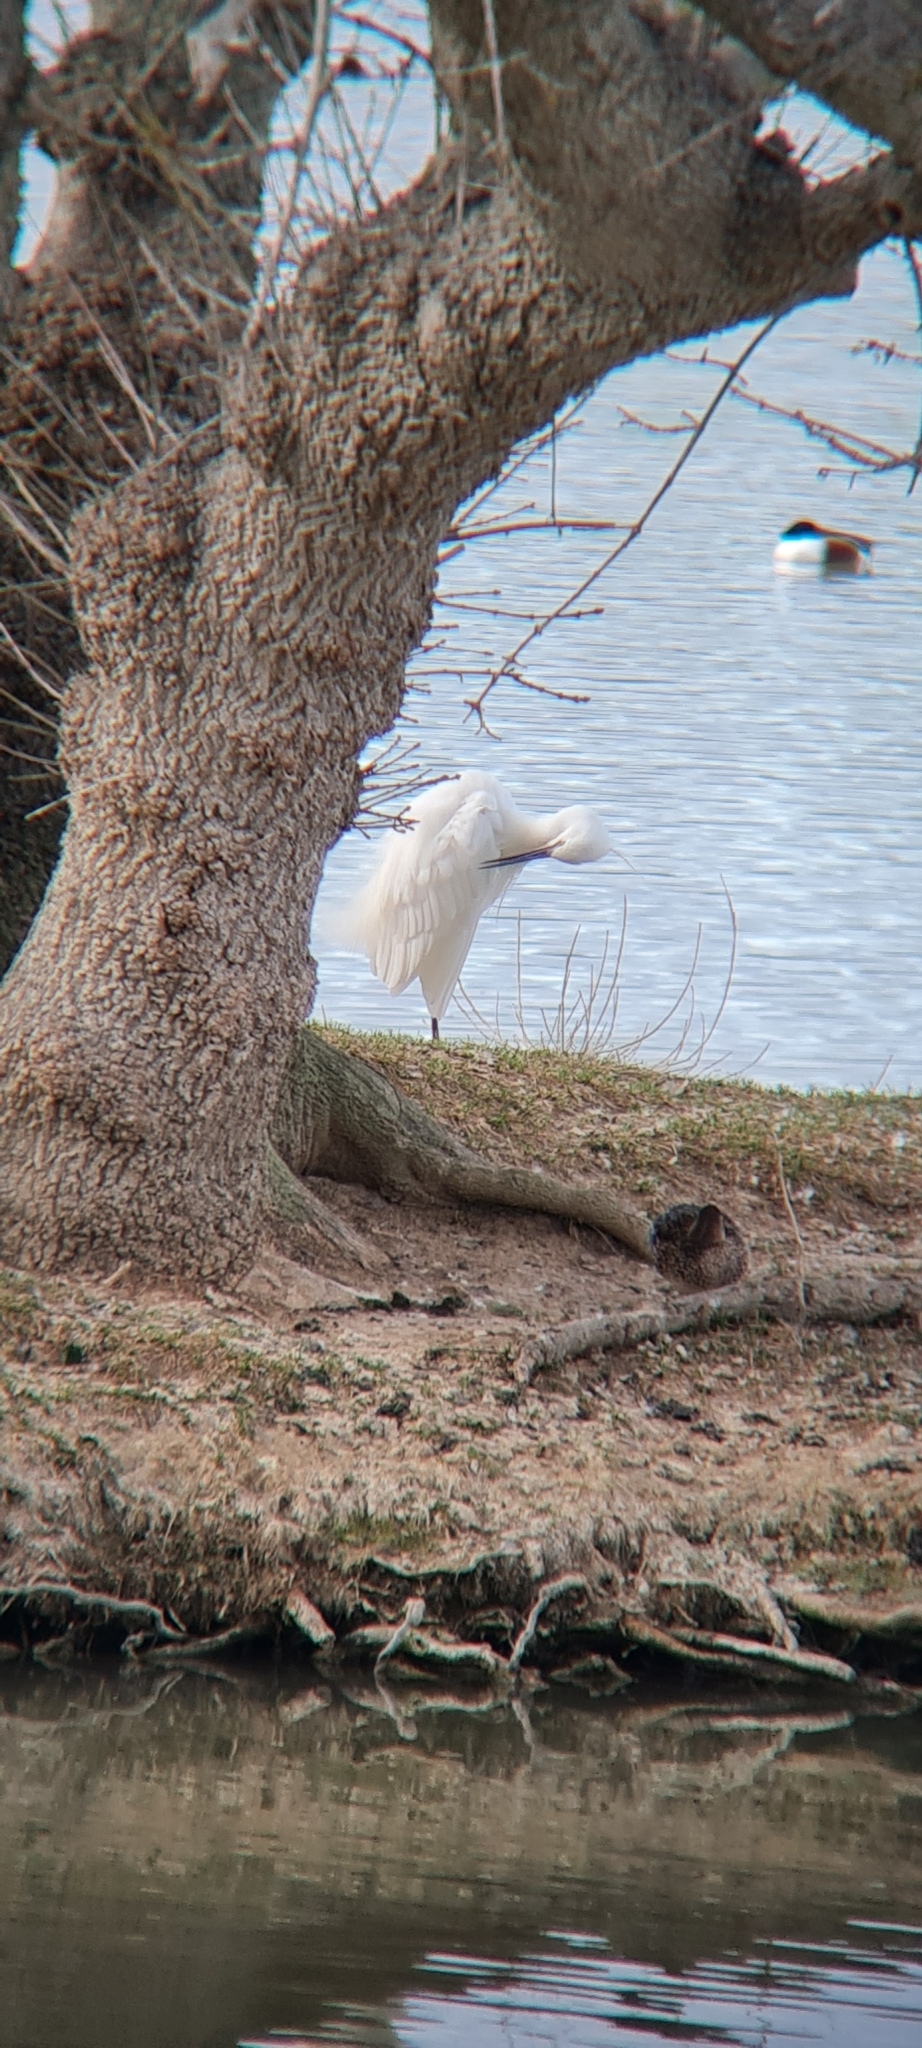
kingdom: Animalia
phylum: Chordata
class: Aves
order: Pelecaniformes
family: Ardeidae
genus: Egretta
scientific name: Egretta garzetta
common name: Little egret
